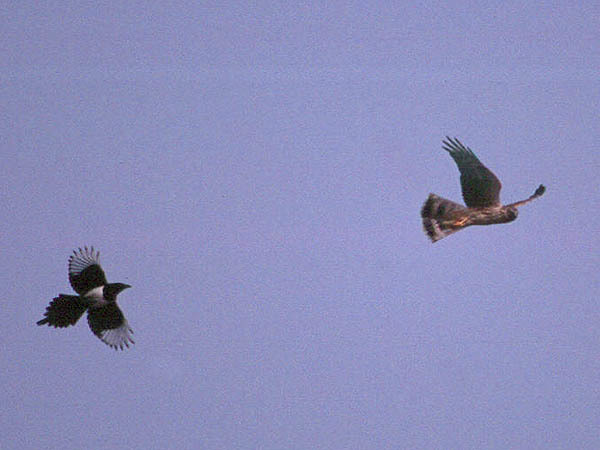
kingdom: Animalia
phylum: Chordata
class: Aves
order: Accipitriformes
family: Accipitridae
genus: Circus
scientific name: Circus cyaneus
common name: Hen harrier
